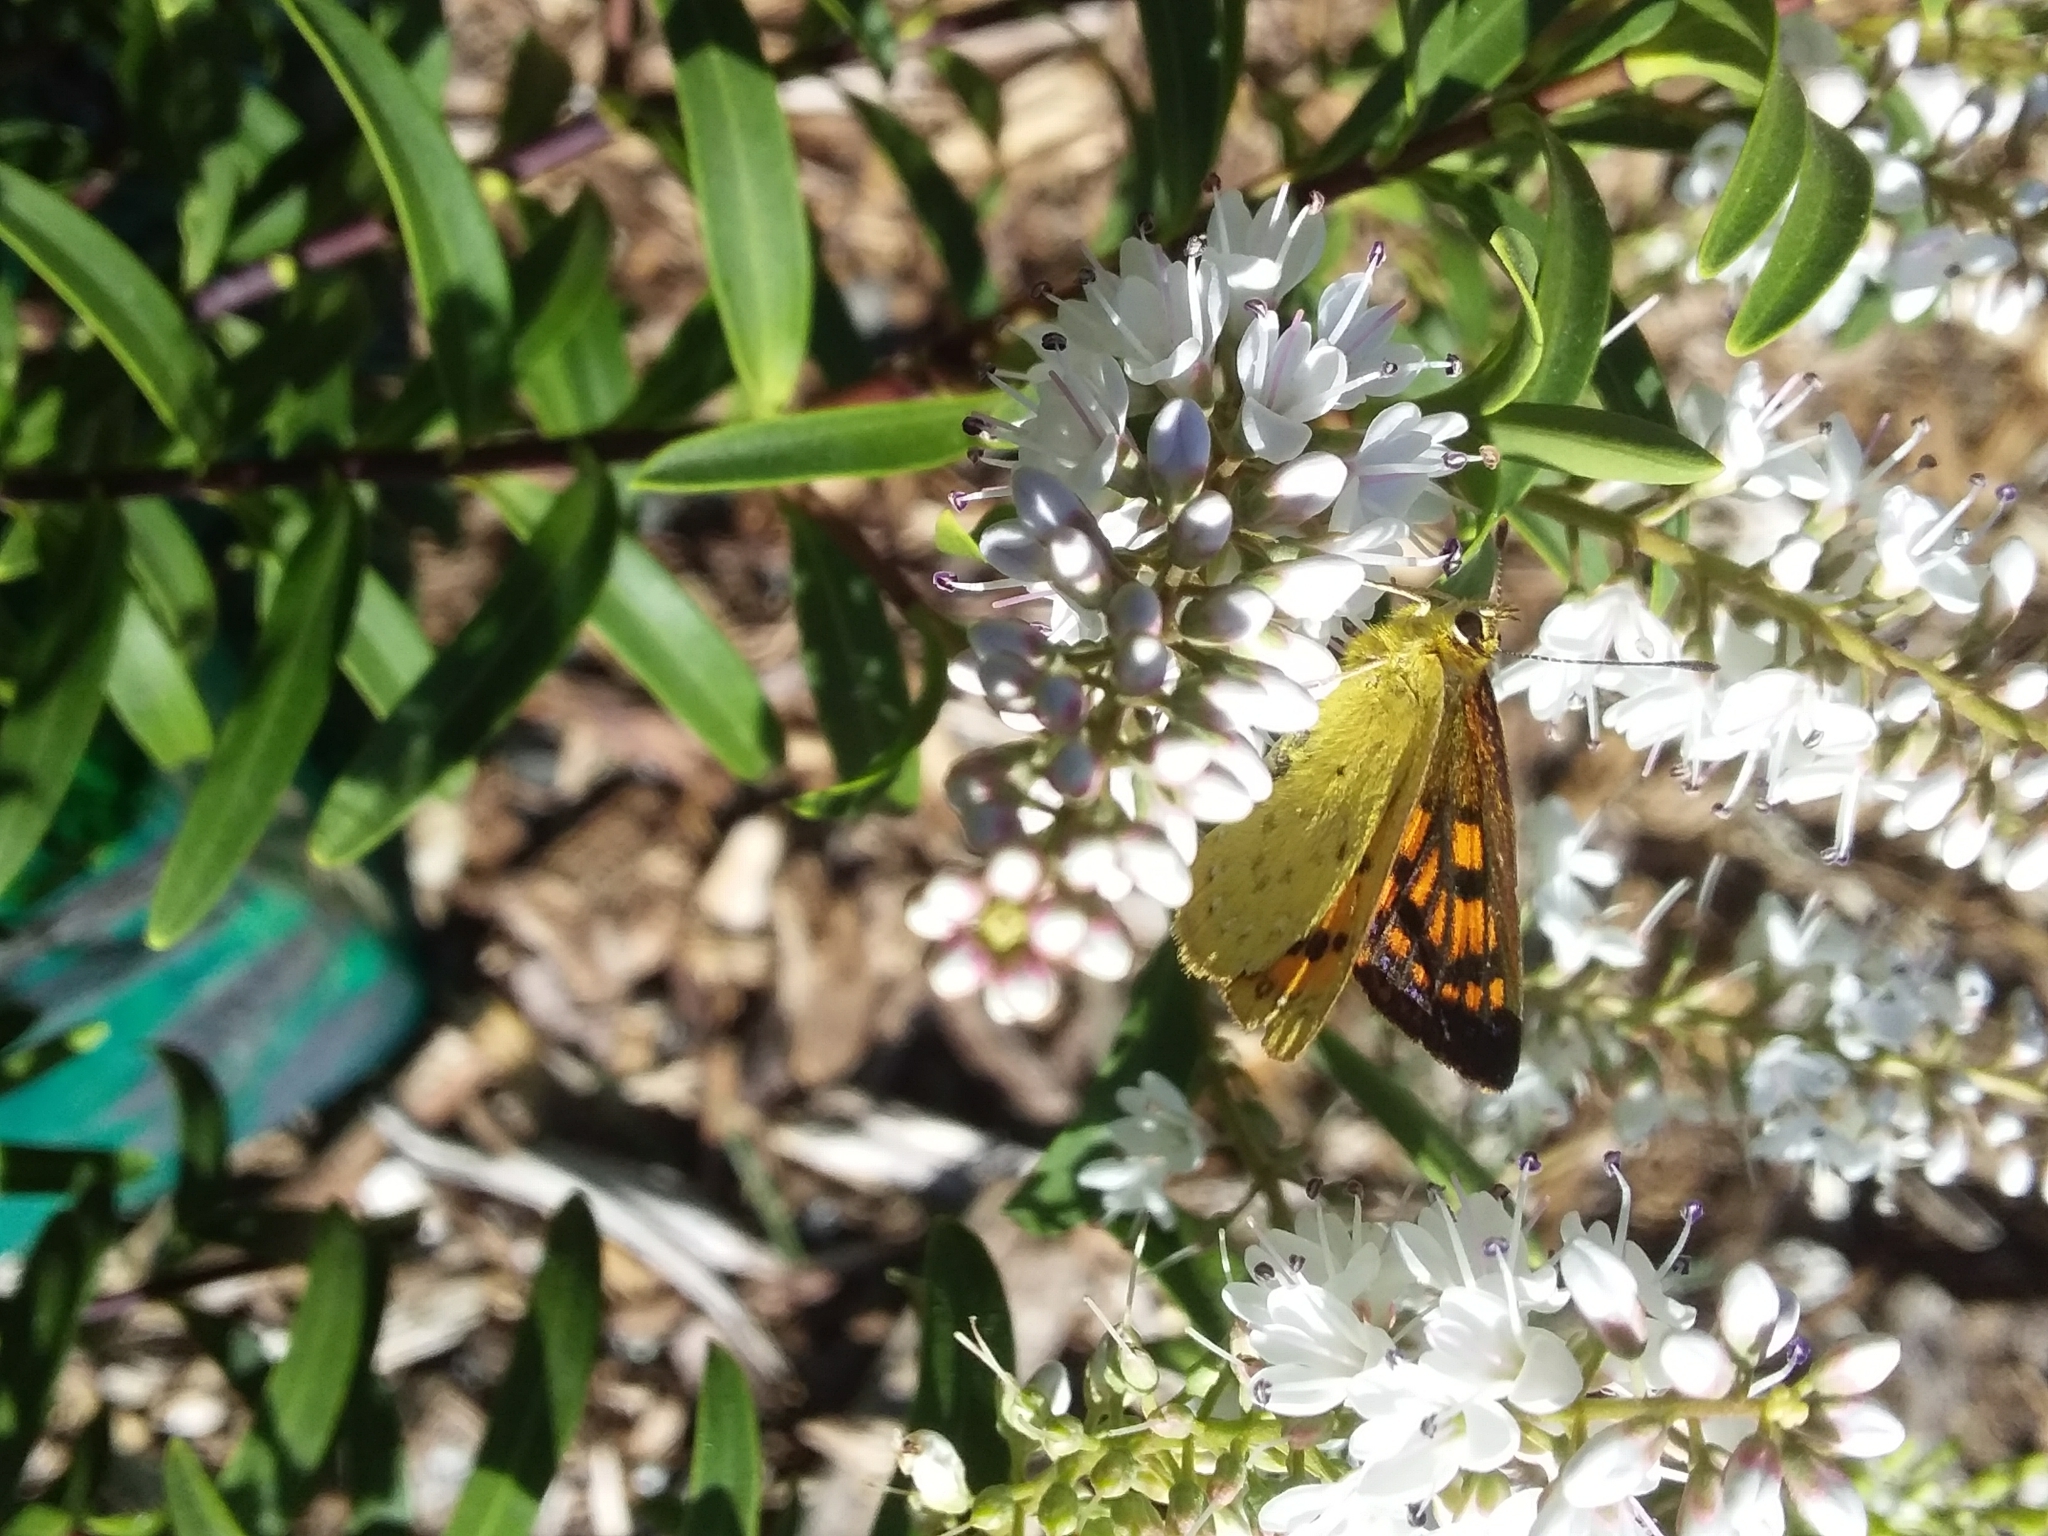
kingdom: Animalia
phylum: Arthropoda
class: Insecta
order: Lepidoptera
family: Lycaenidae
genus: Lycaena
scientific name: Lycaena
